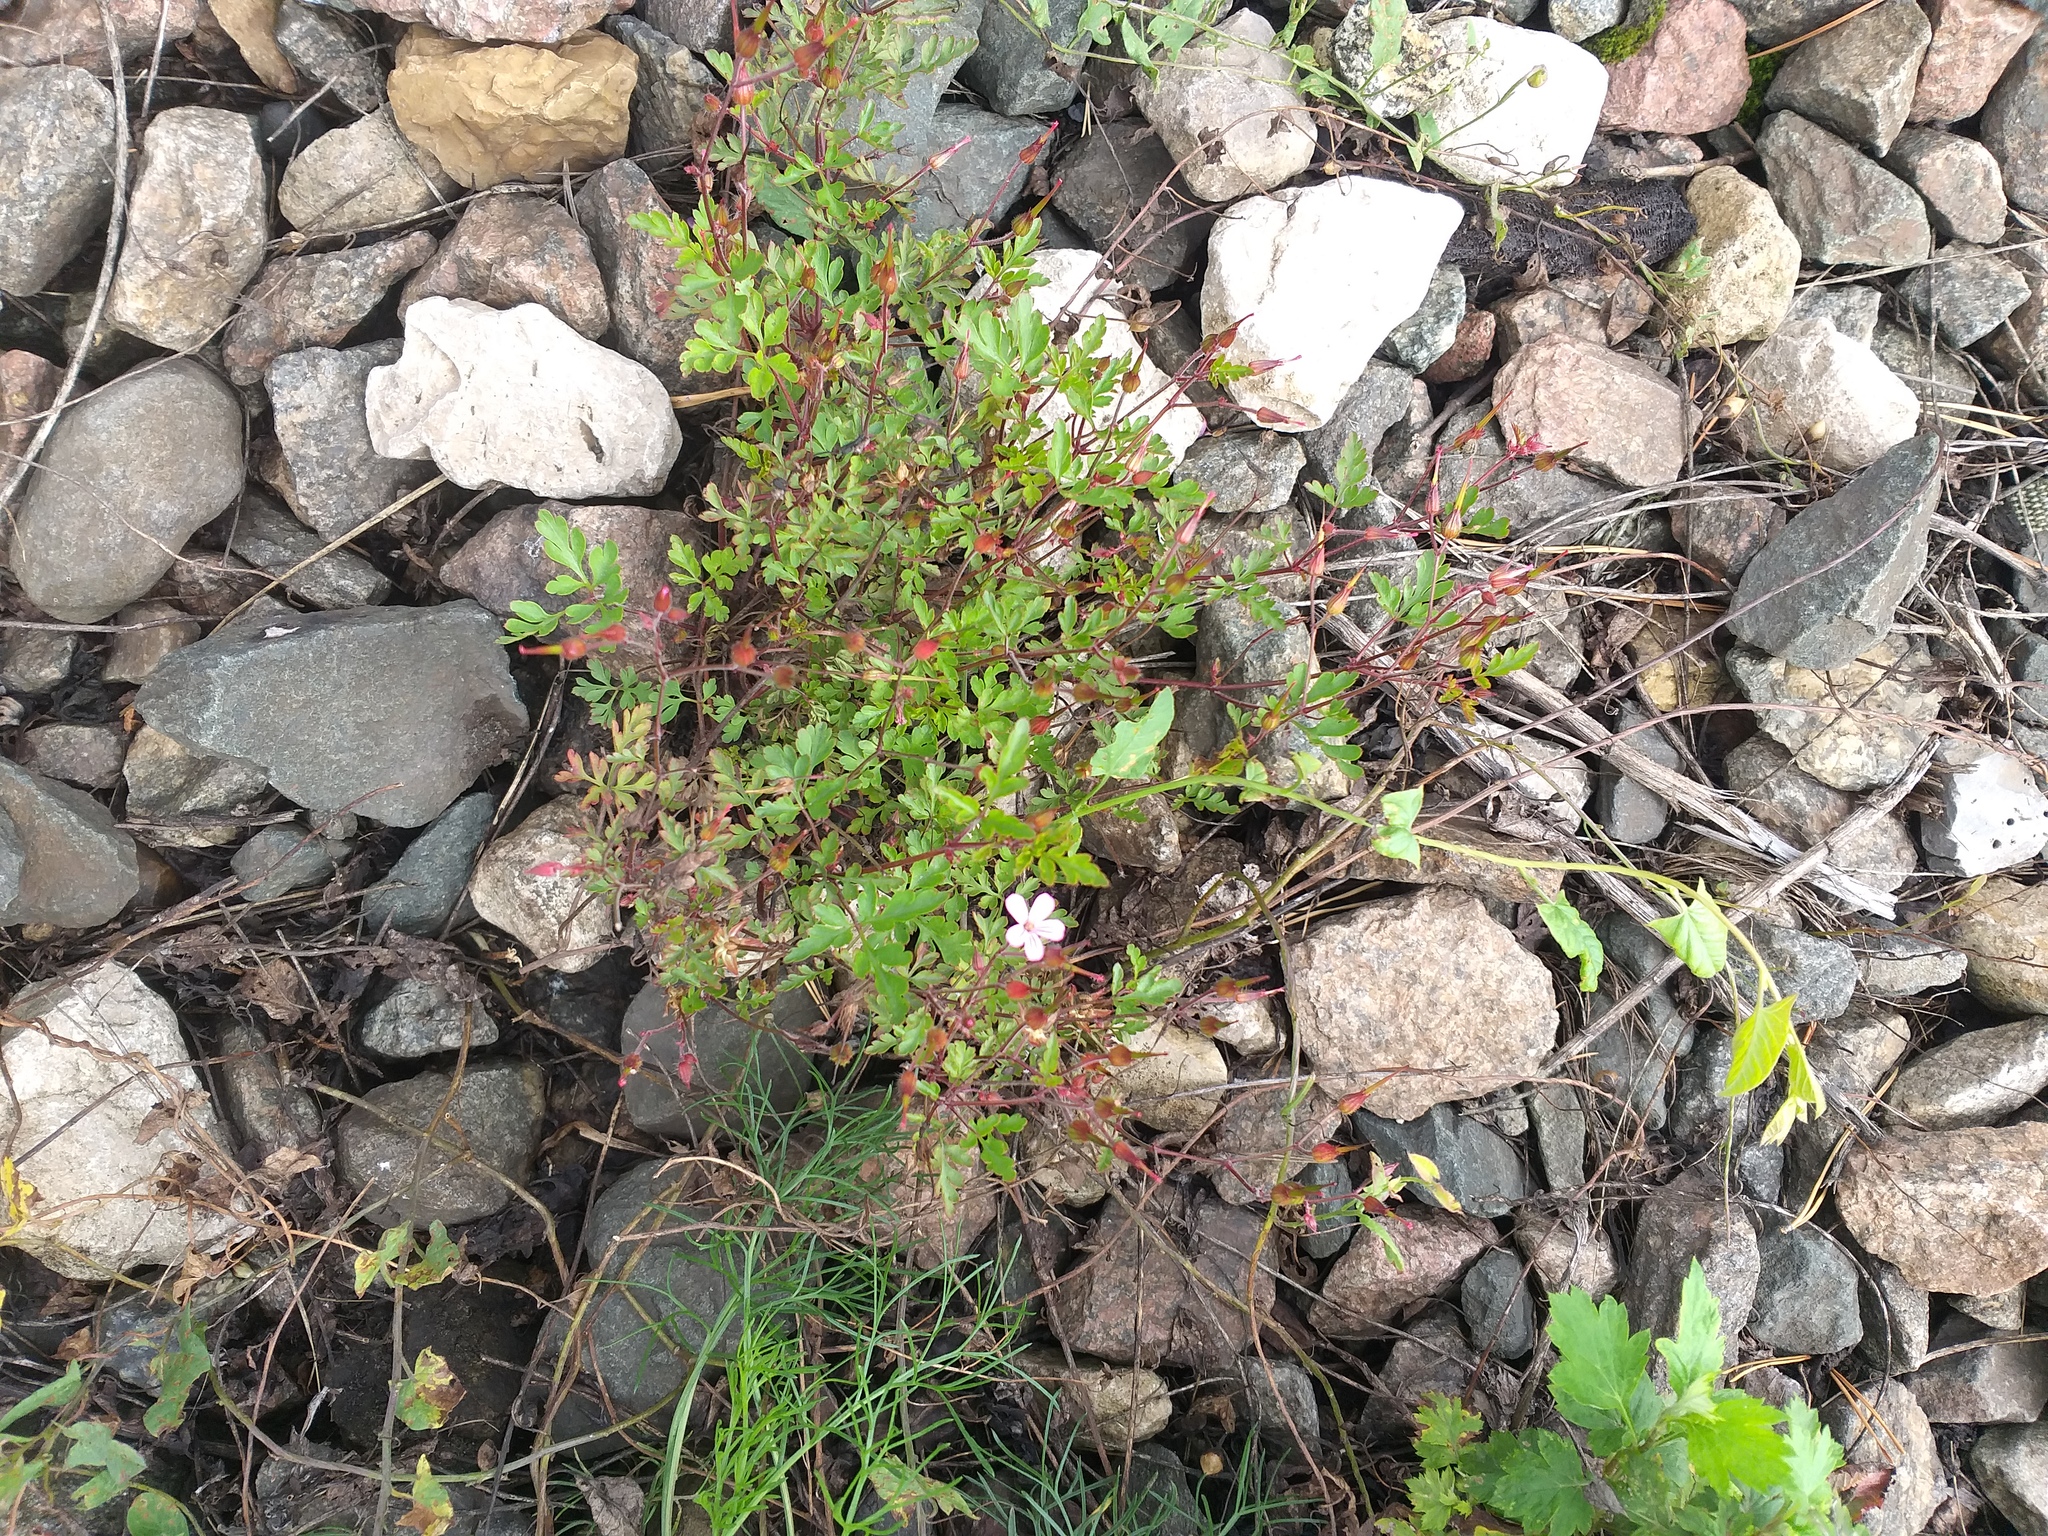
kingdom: Plantae
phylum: Tracheophyta
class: Magnoliopsida
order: Geraniales
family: Geraniaceae
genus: Geranium
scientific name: Geranium robertianum
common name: Herb-robert
